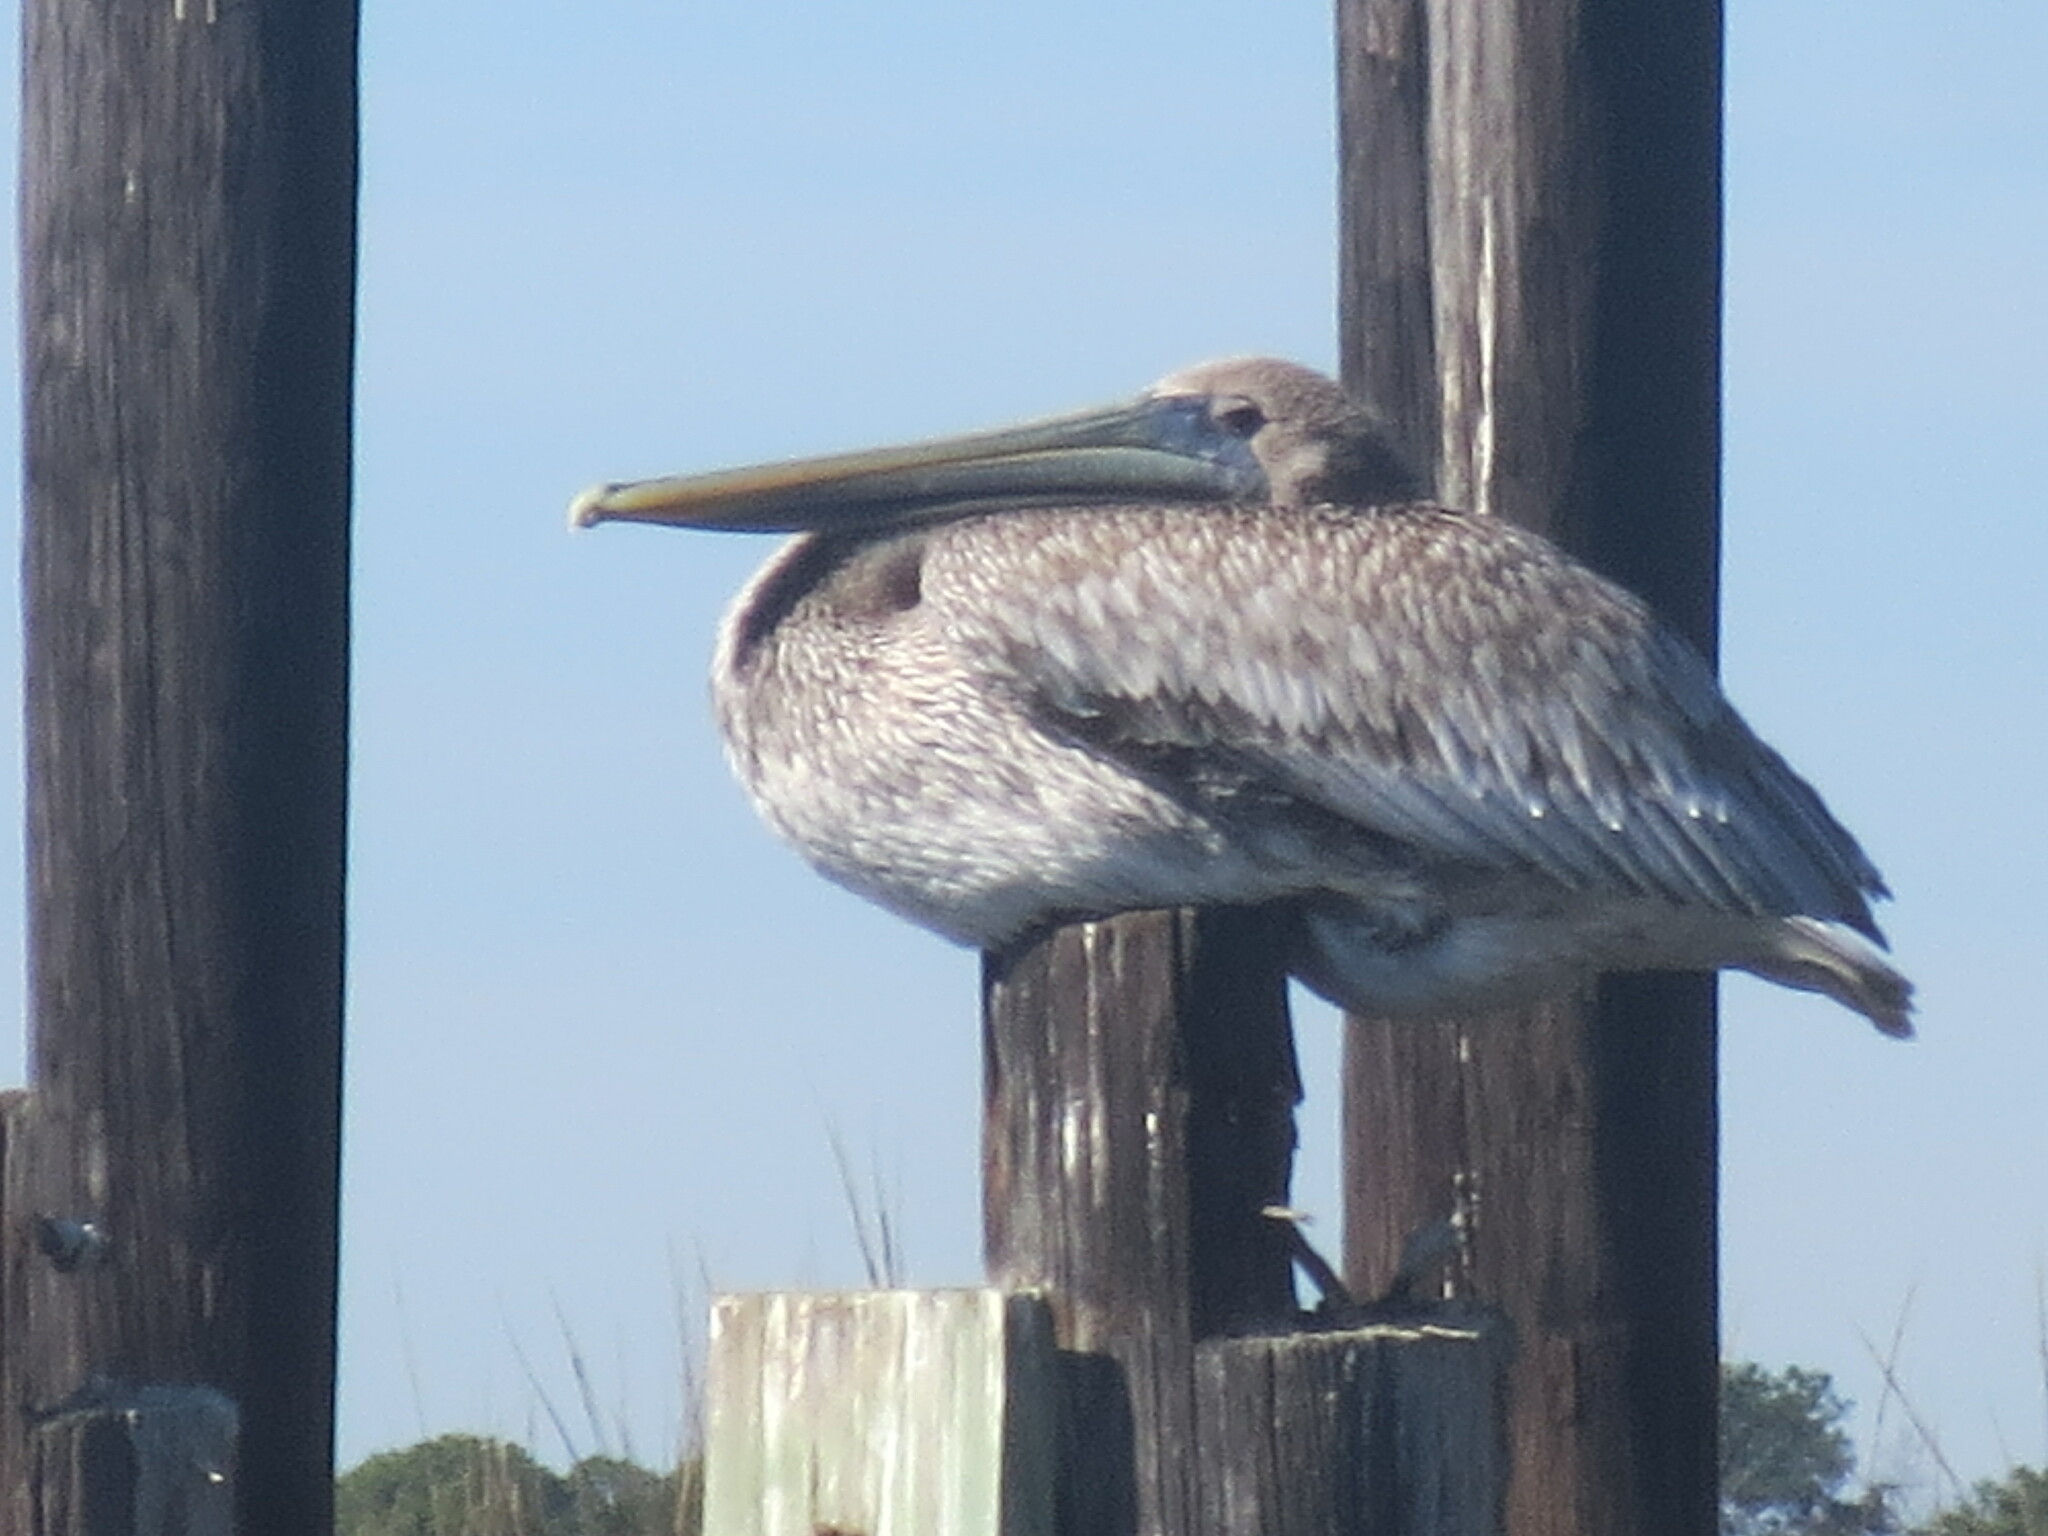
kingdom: Animalia
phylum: Chordata
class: Aves
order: Pelecaniformes
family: Pelecanidae
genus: Pelecanus
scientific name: Pelecanus occidentalis
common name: Brown pelican
